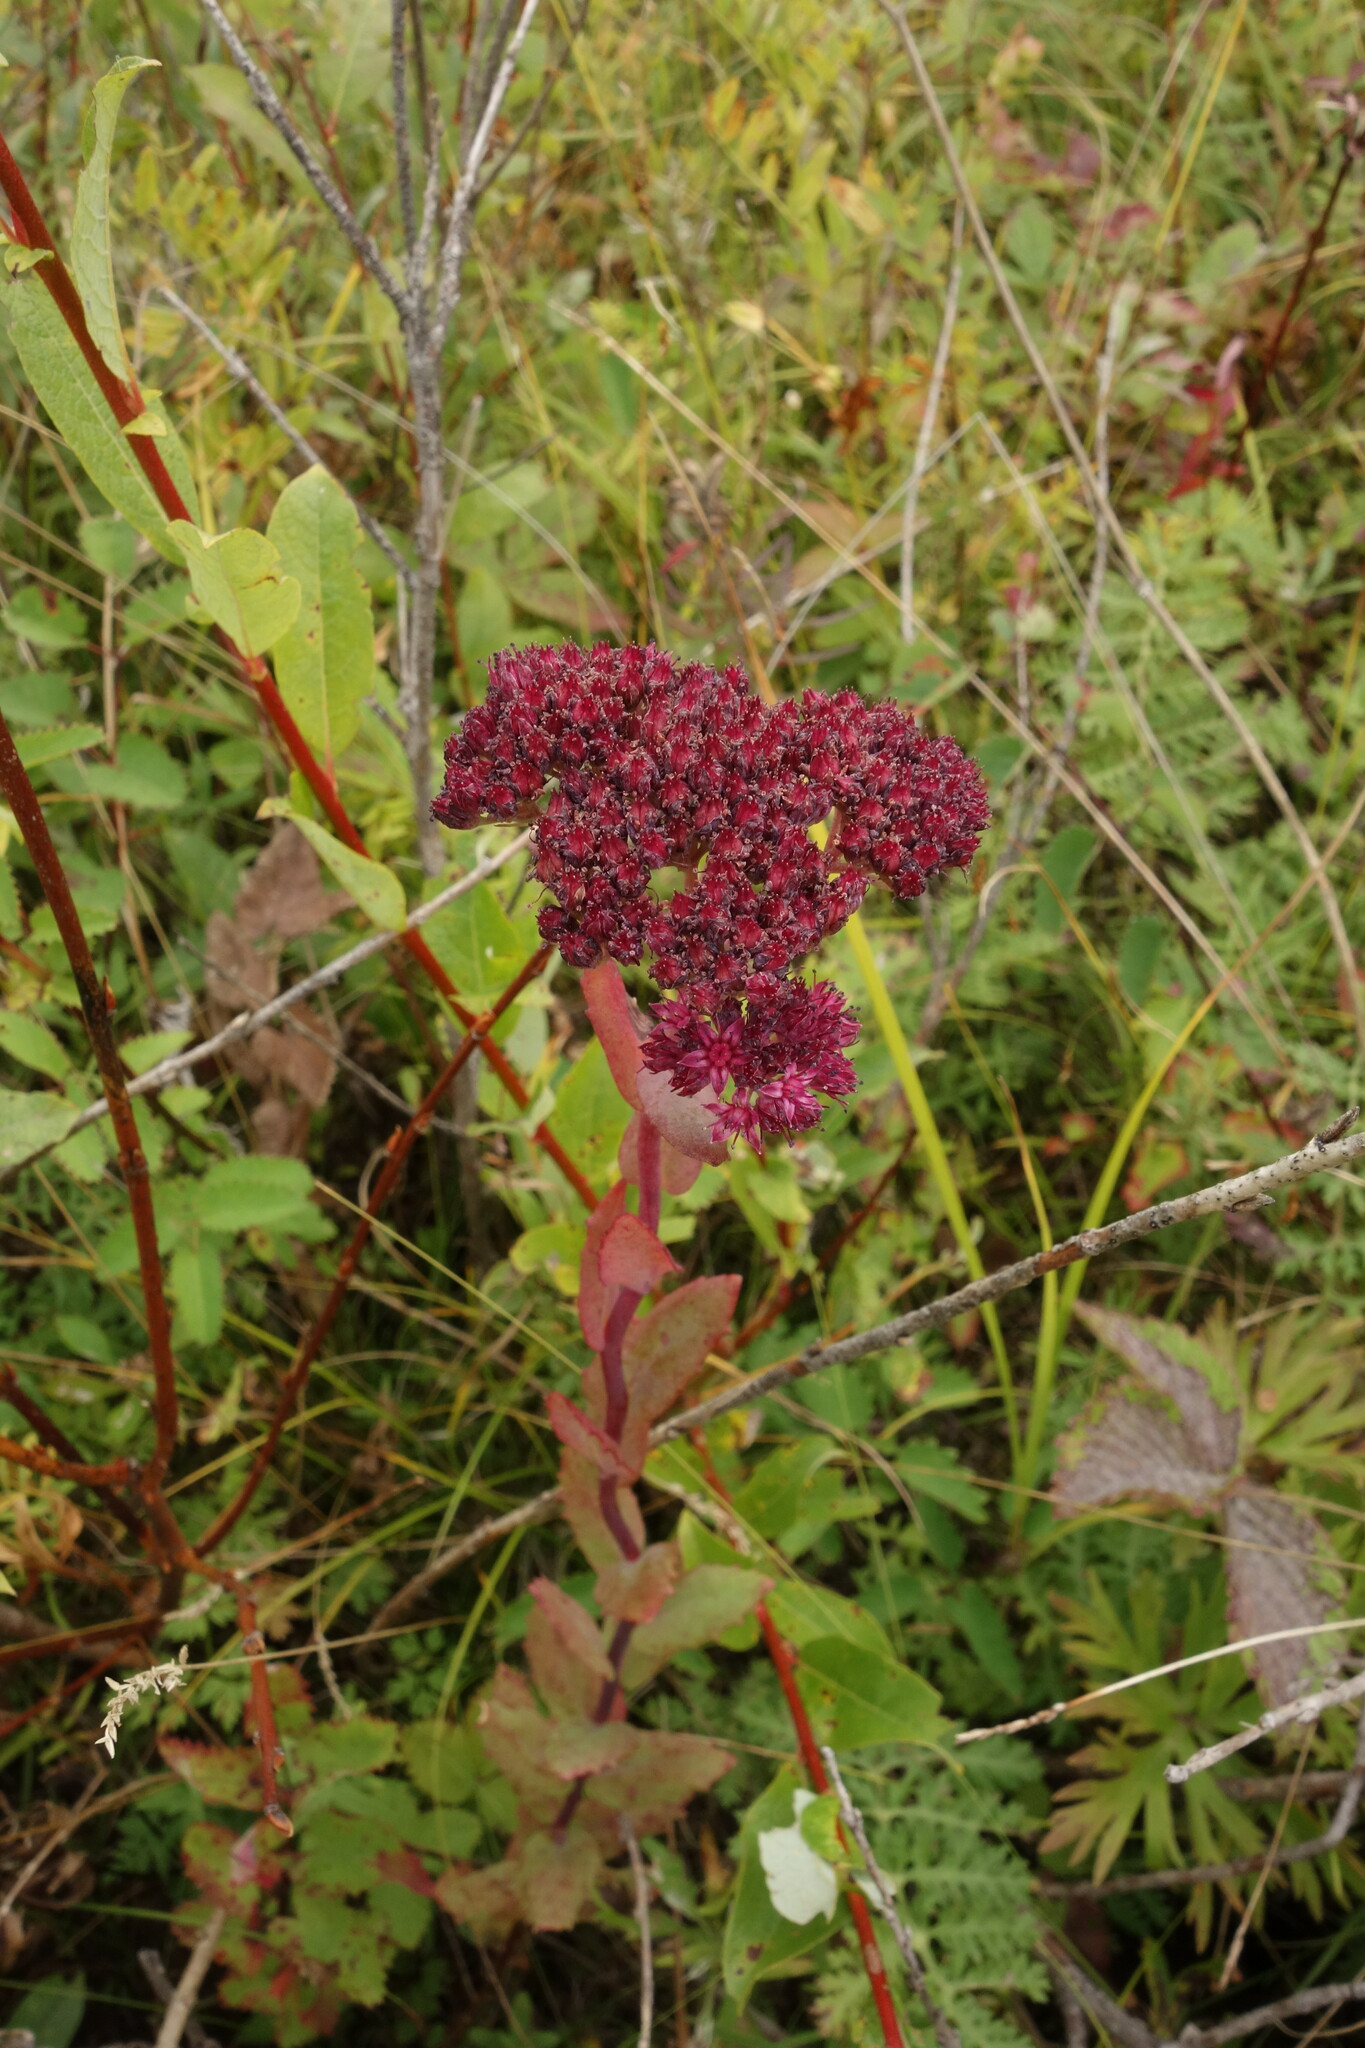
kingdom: Plantae
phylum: Tracheophyta
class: Magnoliopsida
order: Saxifragales
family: Crassulaceae
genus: Hylotelephium
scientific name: Hylotelephium telephium
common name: Live-forever
